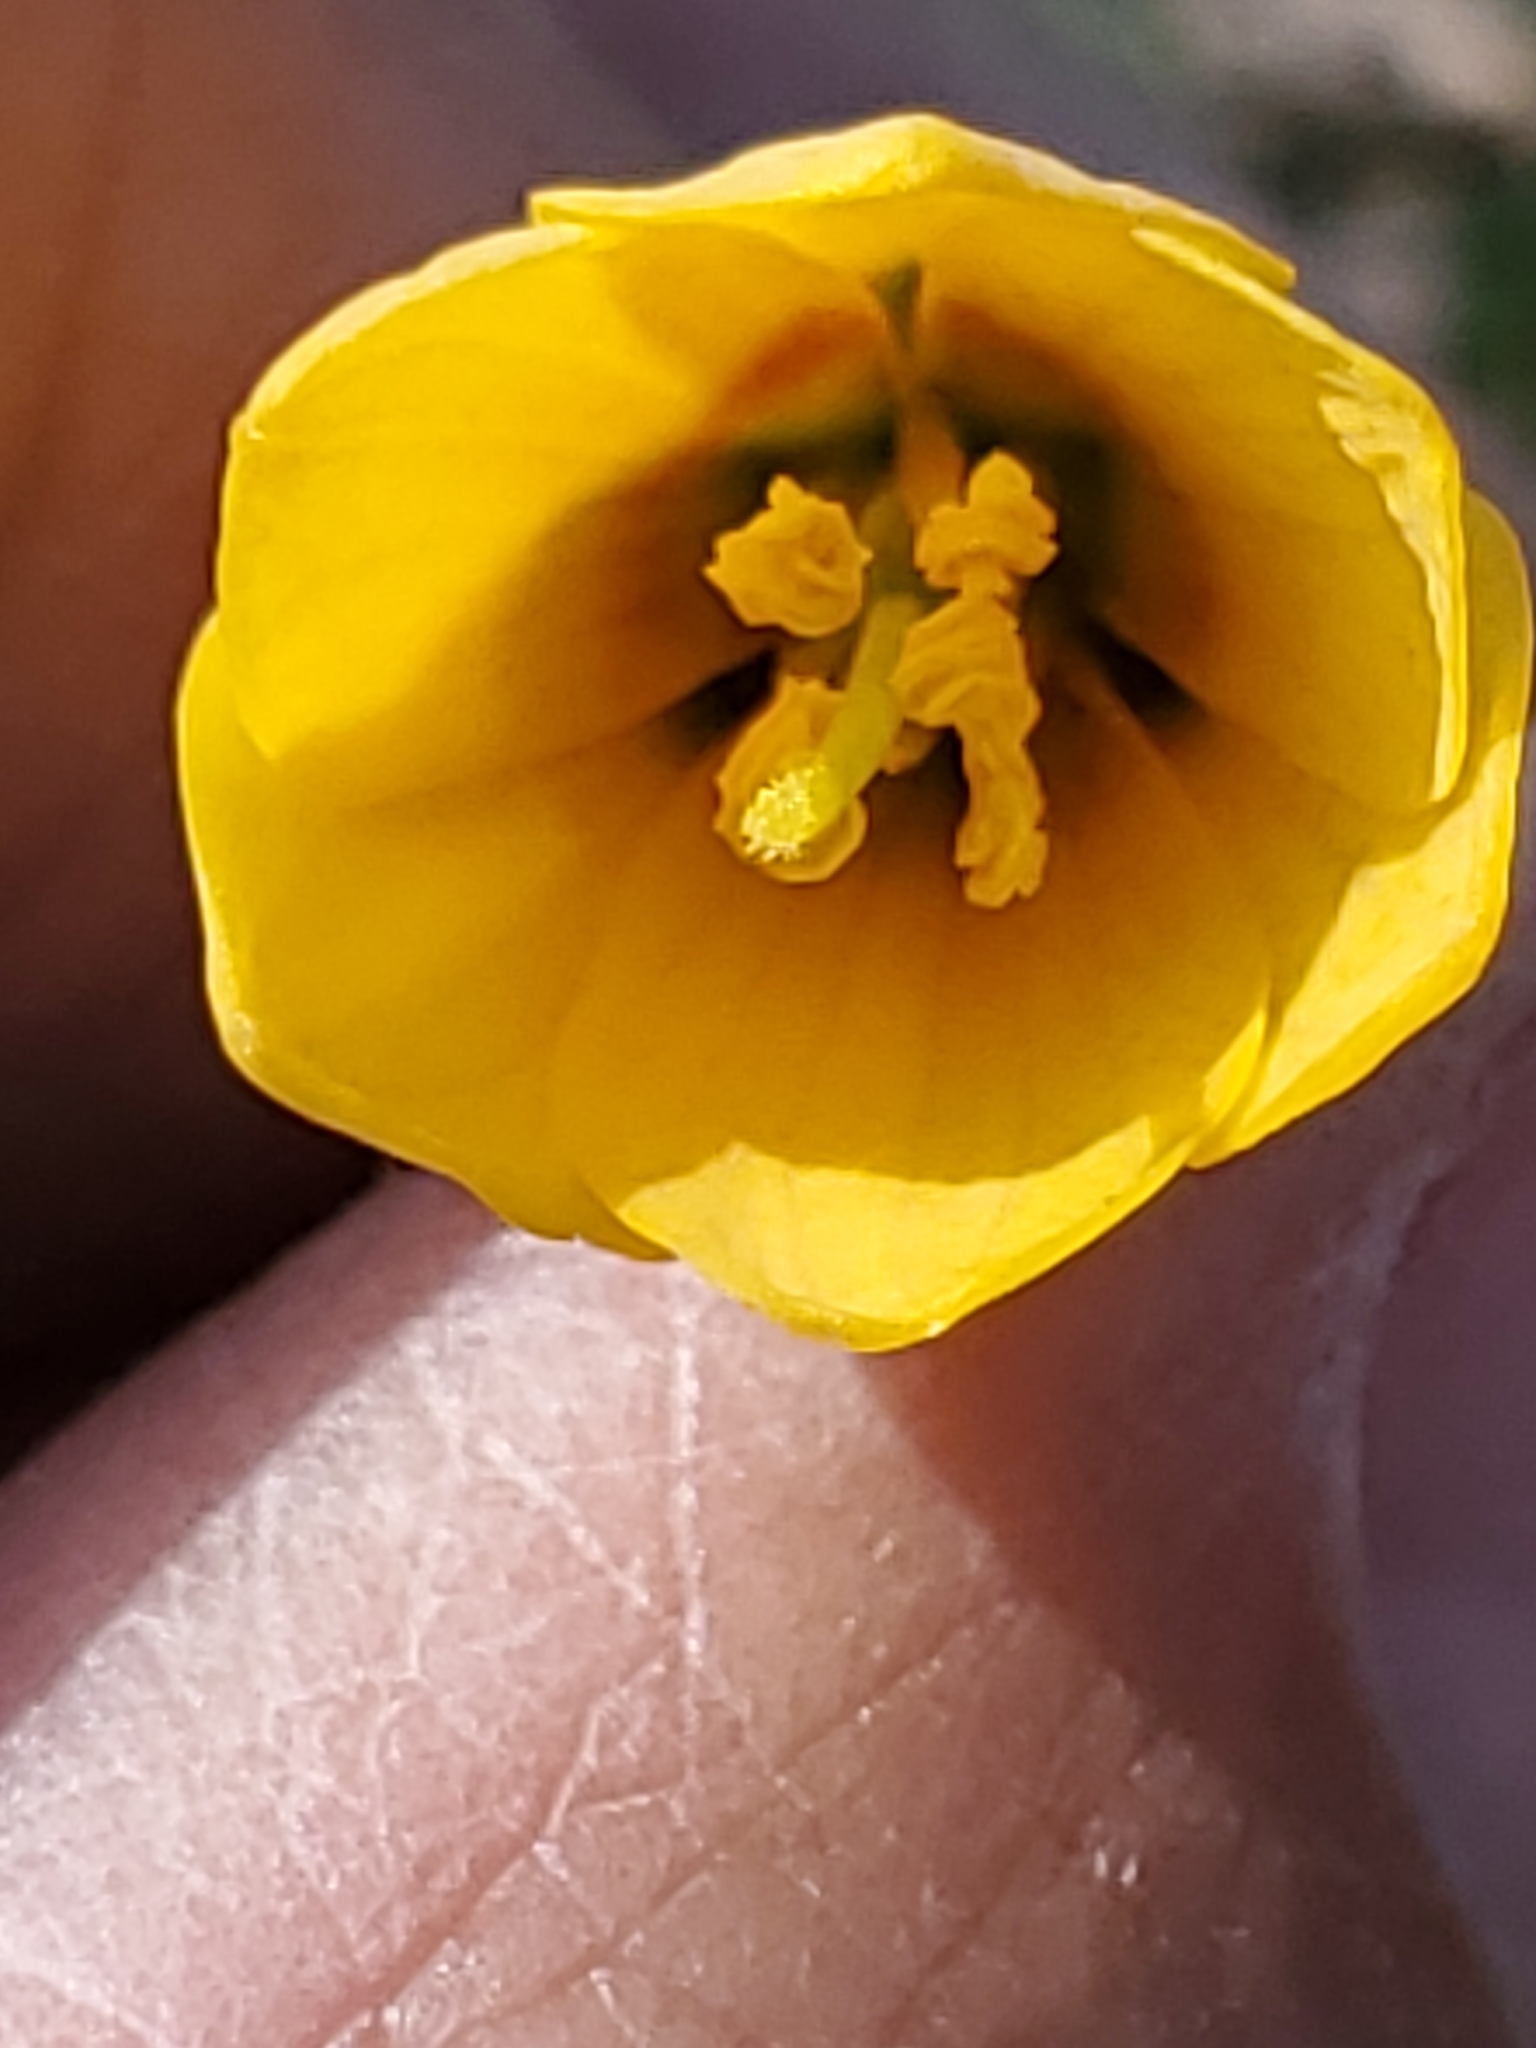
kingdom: Plantae
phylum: Tracheophyta
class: Liliopsida
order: Liliales
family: Liliaceae
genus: Fritillaria
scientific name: Fritillaria pudica
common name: Yellow fritillary
